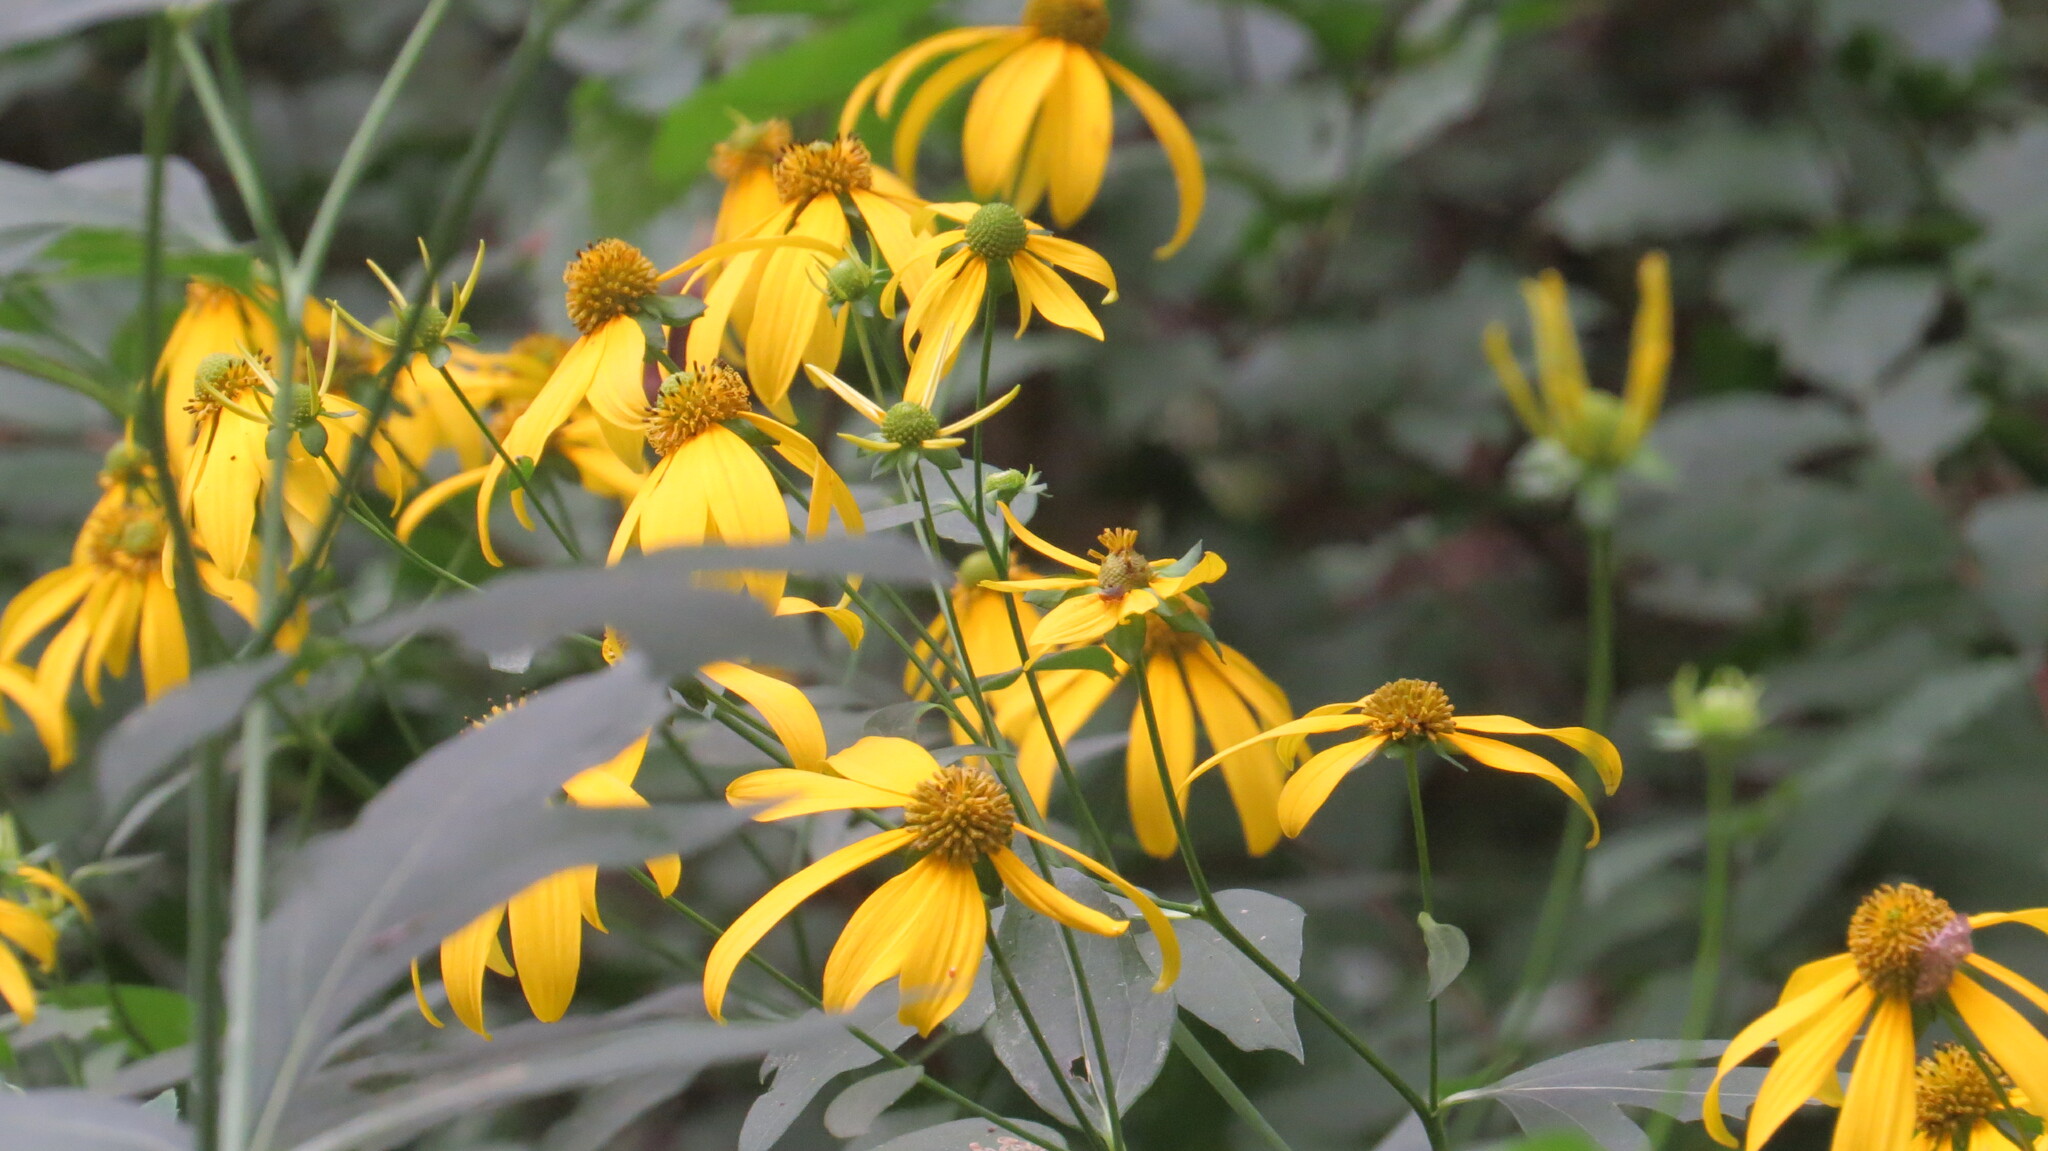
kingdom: Plantae
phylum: Tracheophyta
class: Magnoliopsida
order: Asterales
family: Asteraceae
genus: Rudbeckia
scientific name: Rudbeckia laciniata
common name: Coneflower
